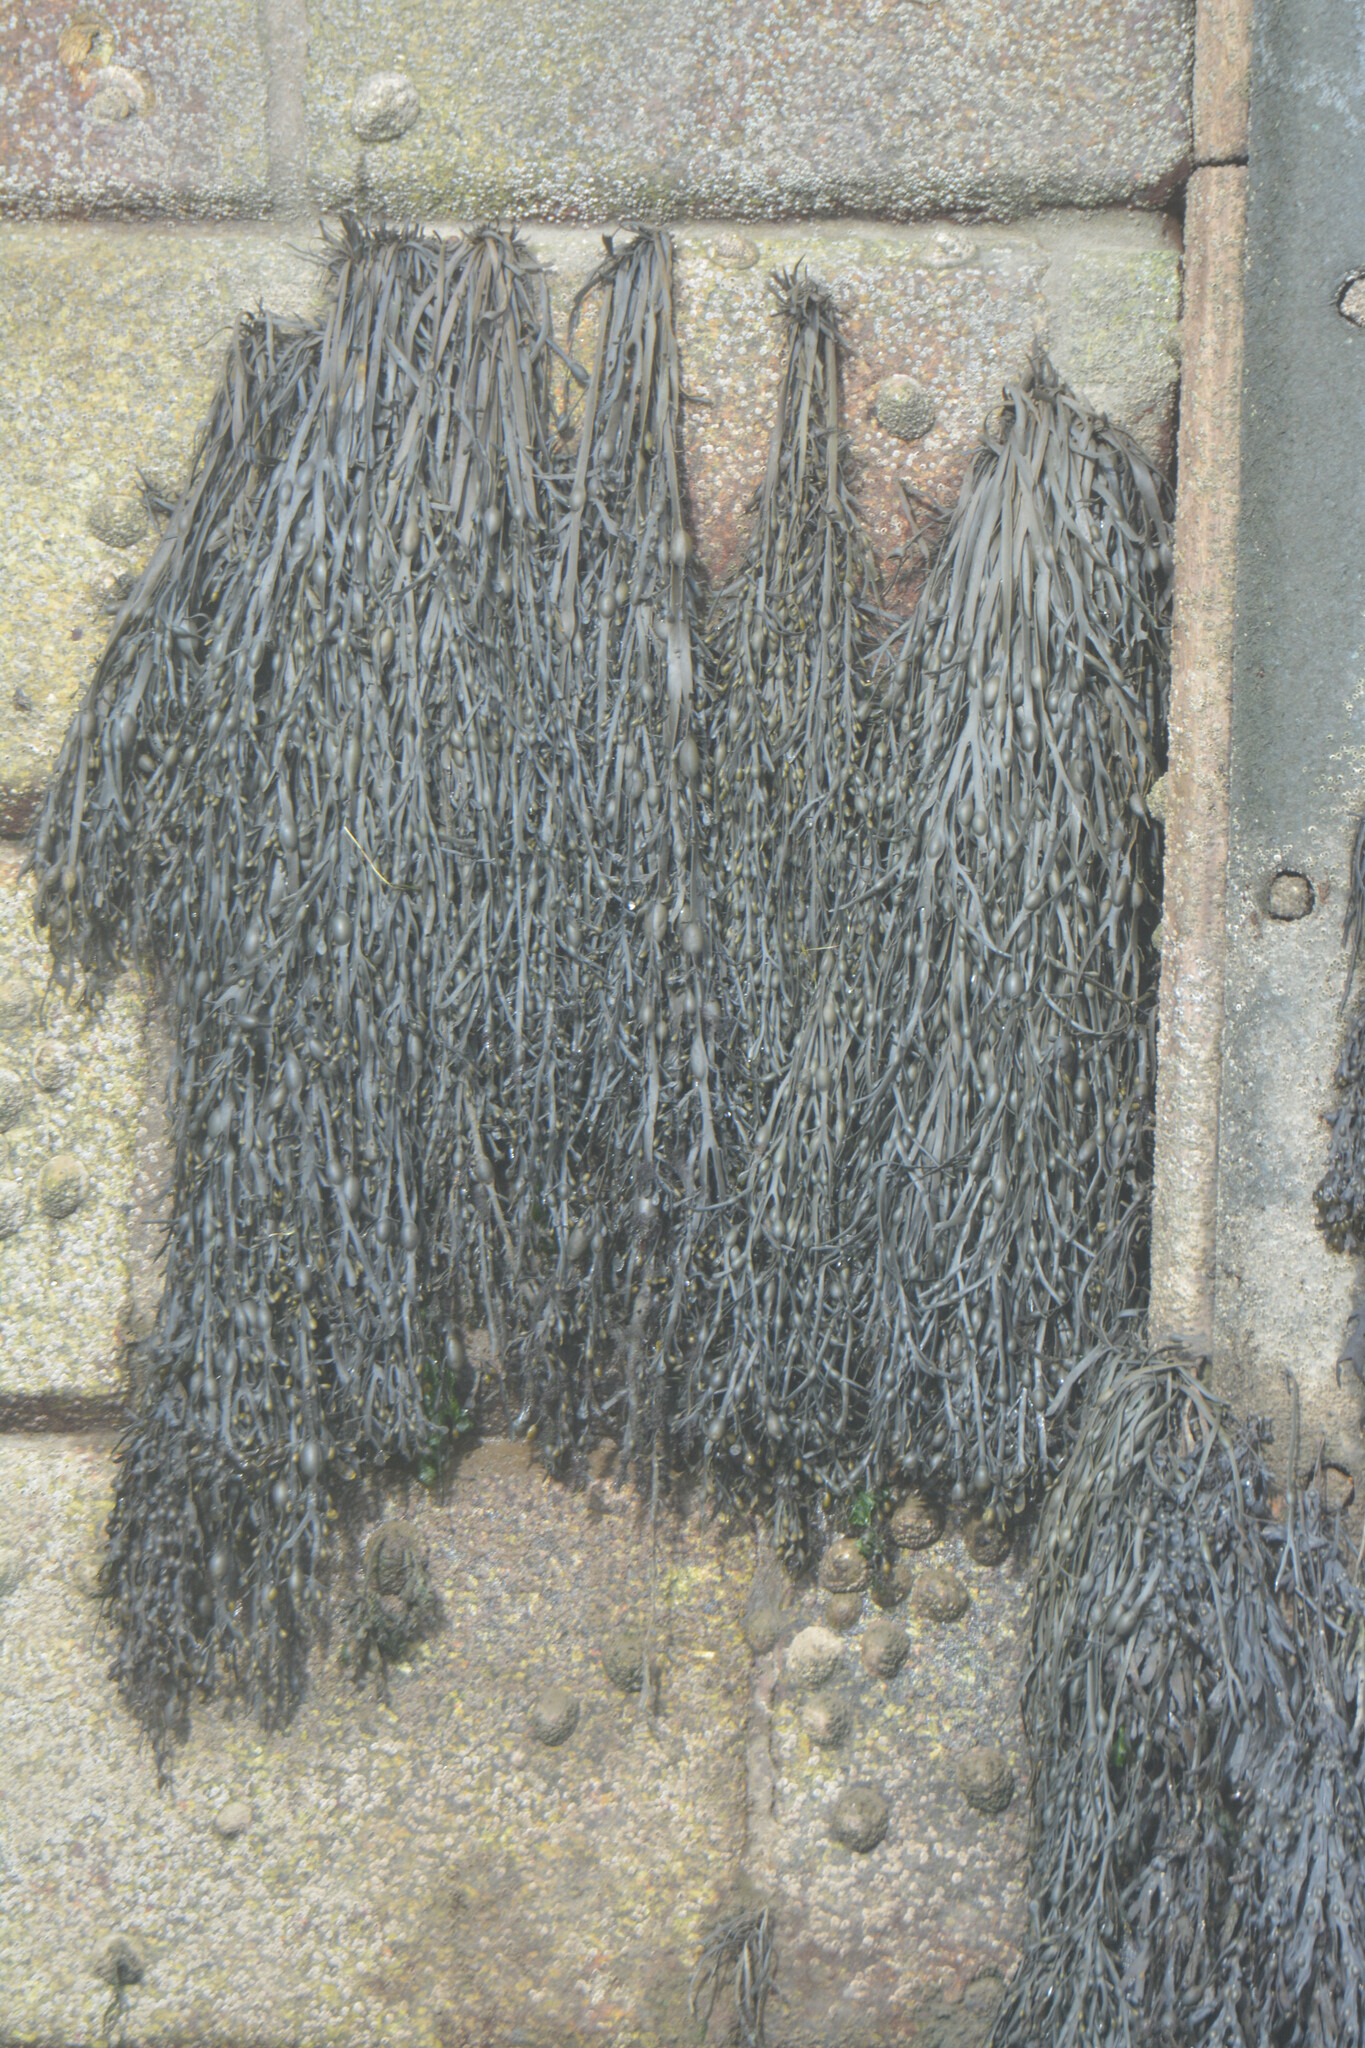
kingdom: Chromista
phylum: Ochrophyta
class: Phaeophyceae
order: Fucales
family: Fucaceae
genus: Ascophyllum
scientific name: Ascophyllum nodosum
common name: Knotted wrack
